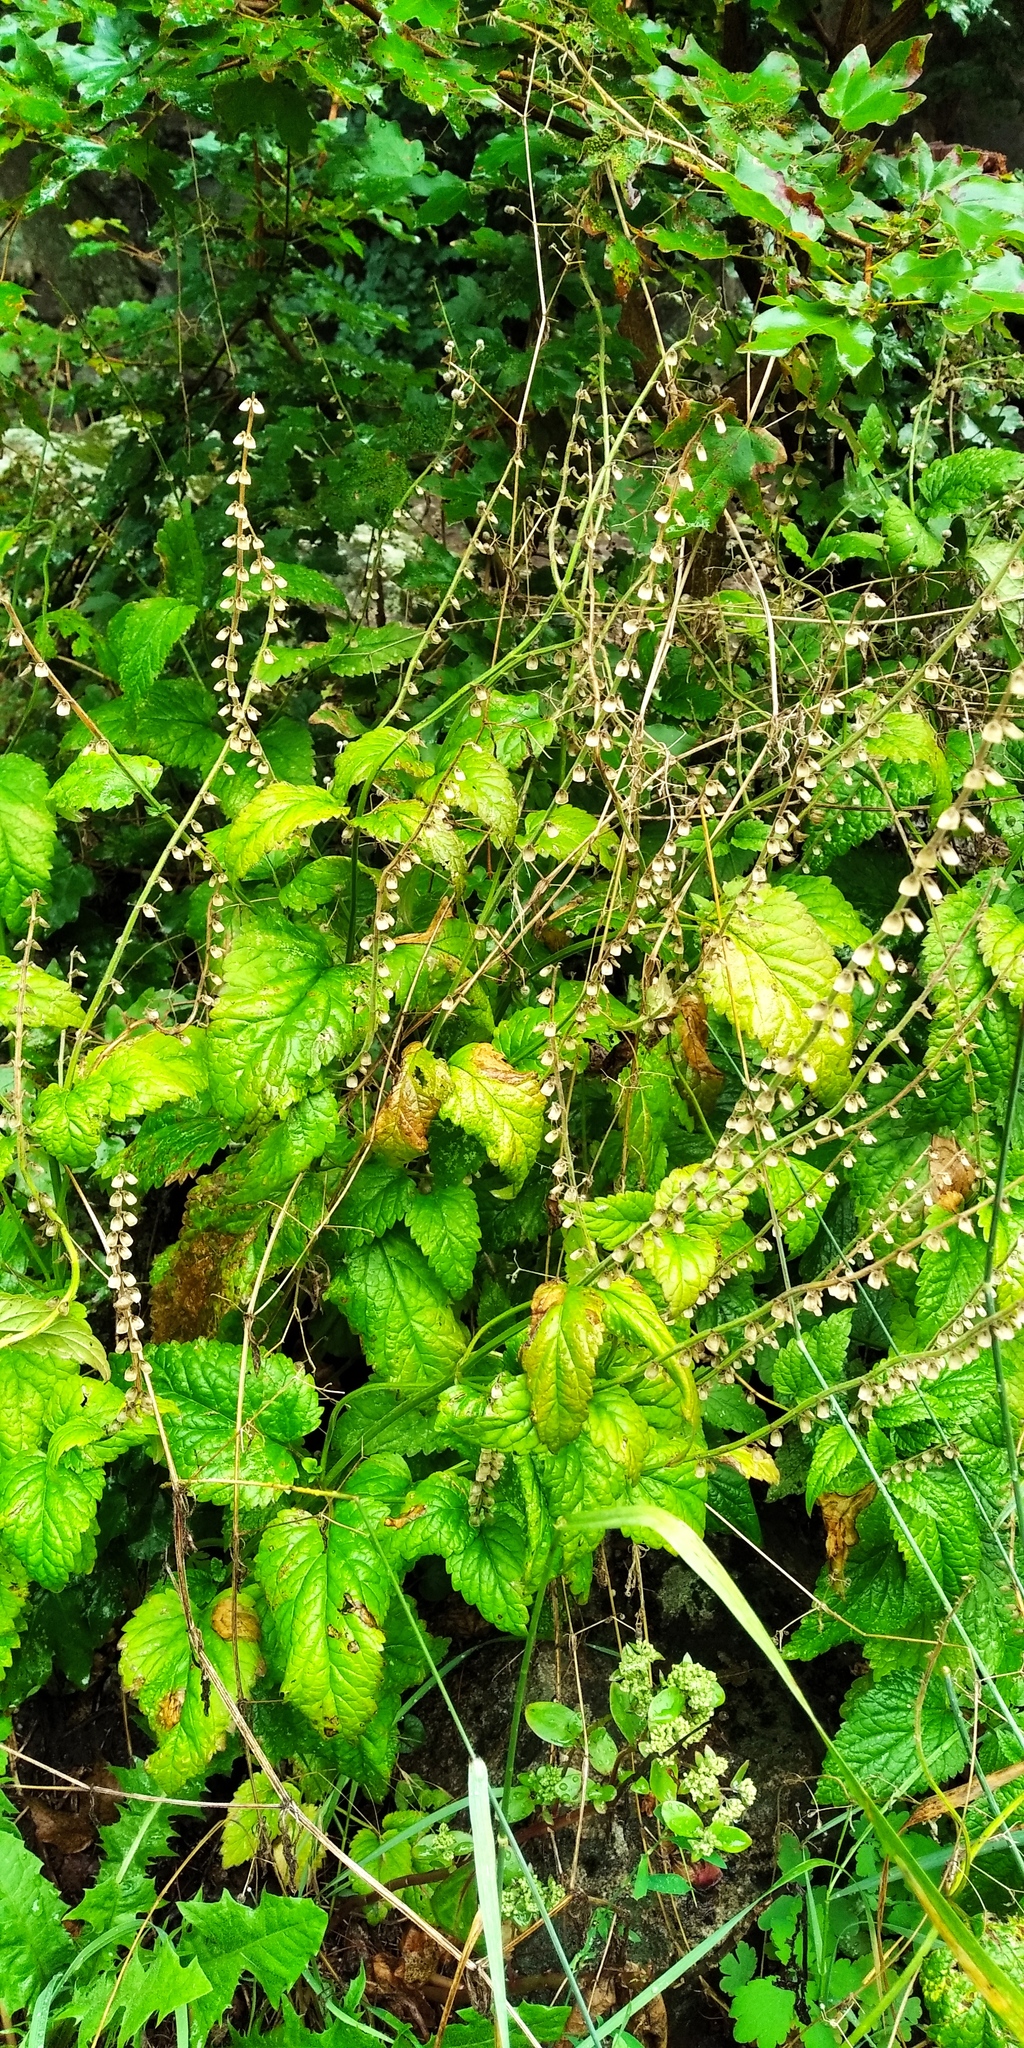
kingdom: Plantae
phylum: Tracheophyta
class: Magnoliopsida
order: Lamiales
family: Lamiaceae
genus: Scutellaria
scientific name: Scutellaria altissima
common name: Somerset skullcap
